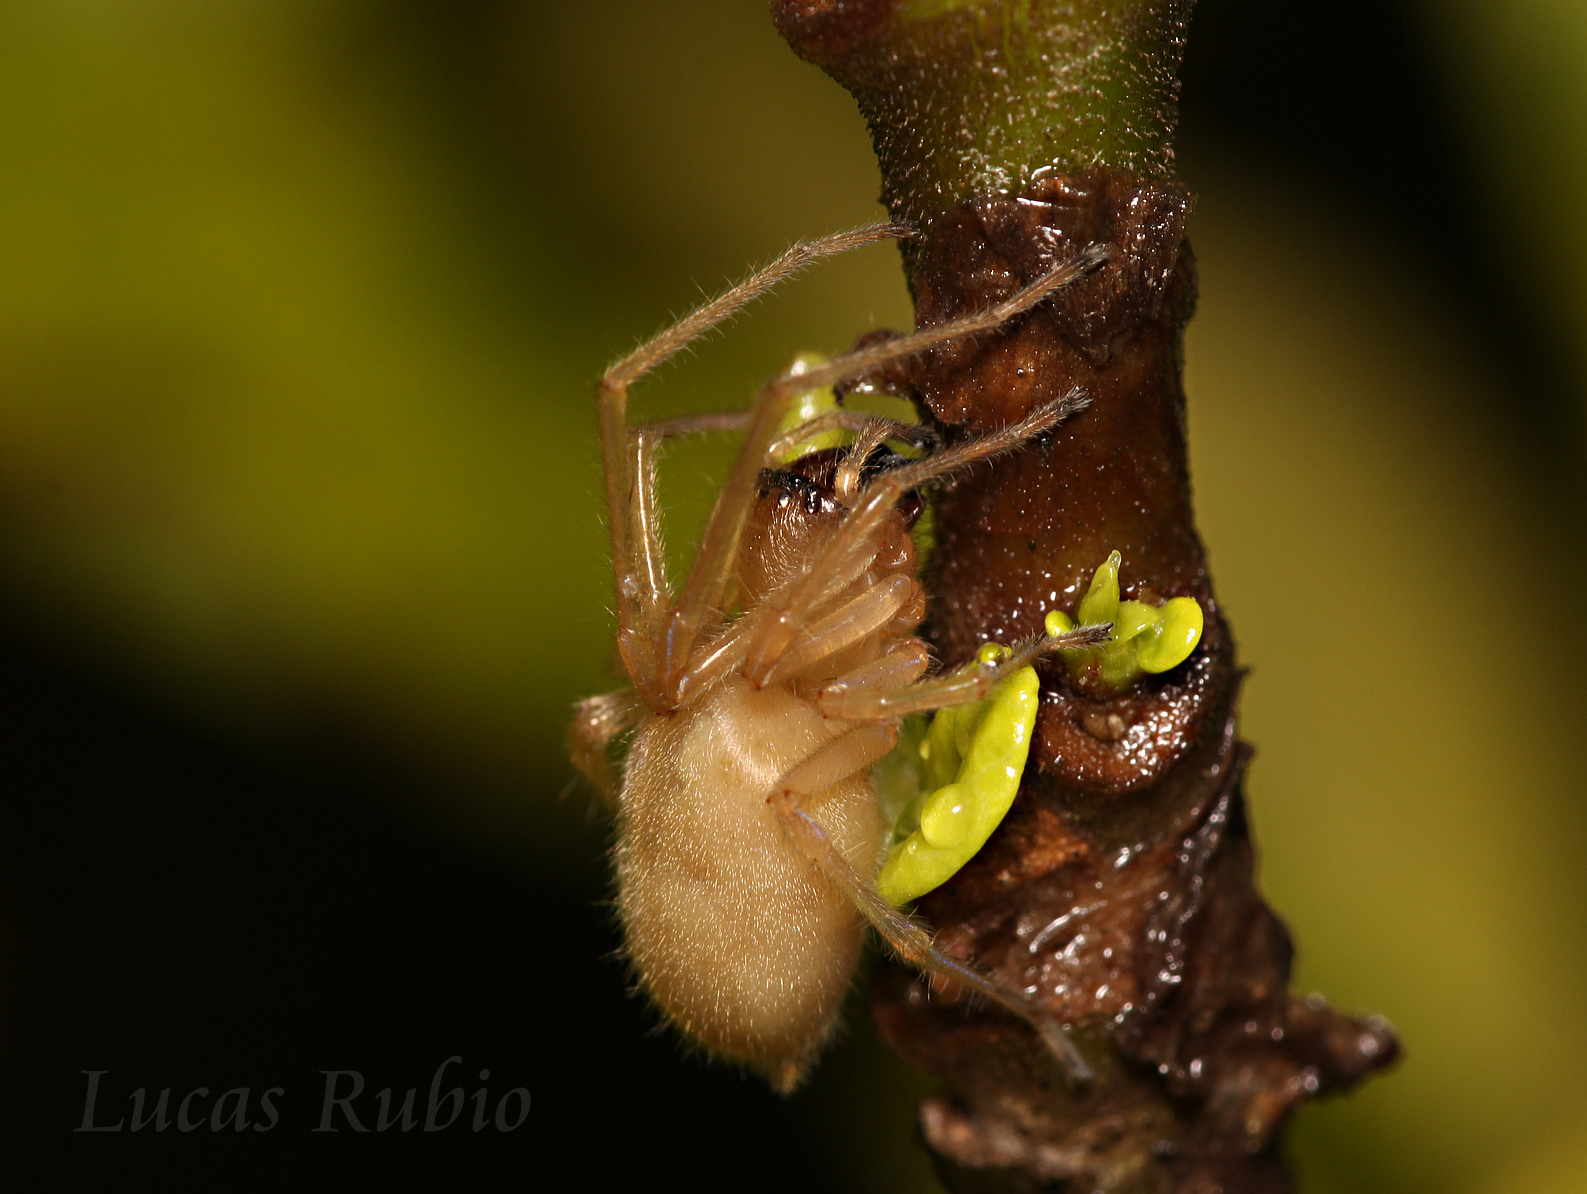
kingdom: Animalia
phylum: Arthropoda
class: Arachnida
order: Araneae
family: Cheiracanthiidae
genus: Cheiracanthium
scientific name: Cheiracanthium
